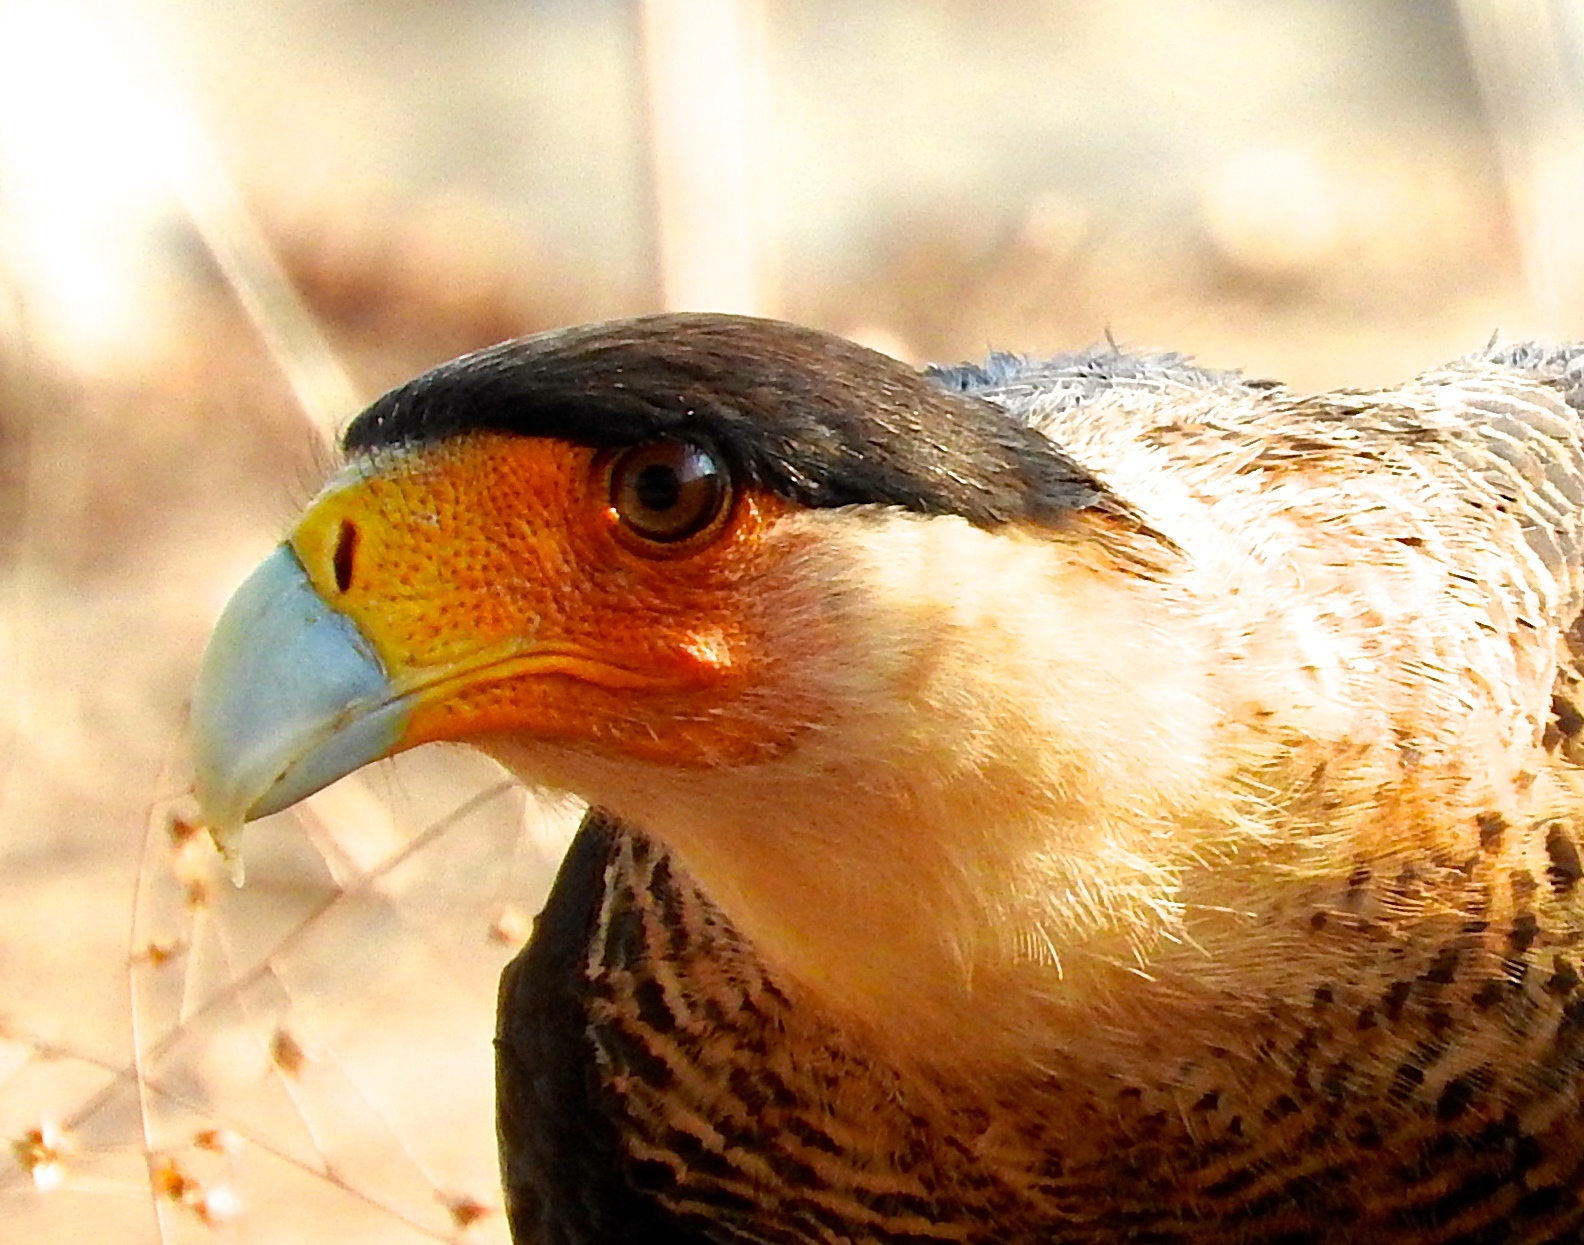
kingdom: Animalia
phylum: Chordata
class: Aves
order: Falconiformes
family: Falconidae
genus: Caracara
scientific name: Caracara plancus
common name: Southern caracara
